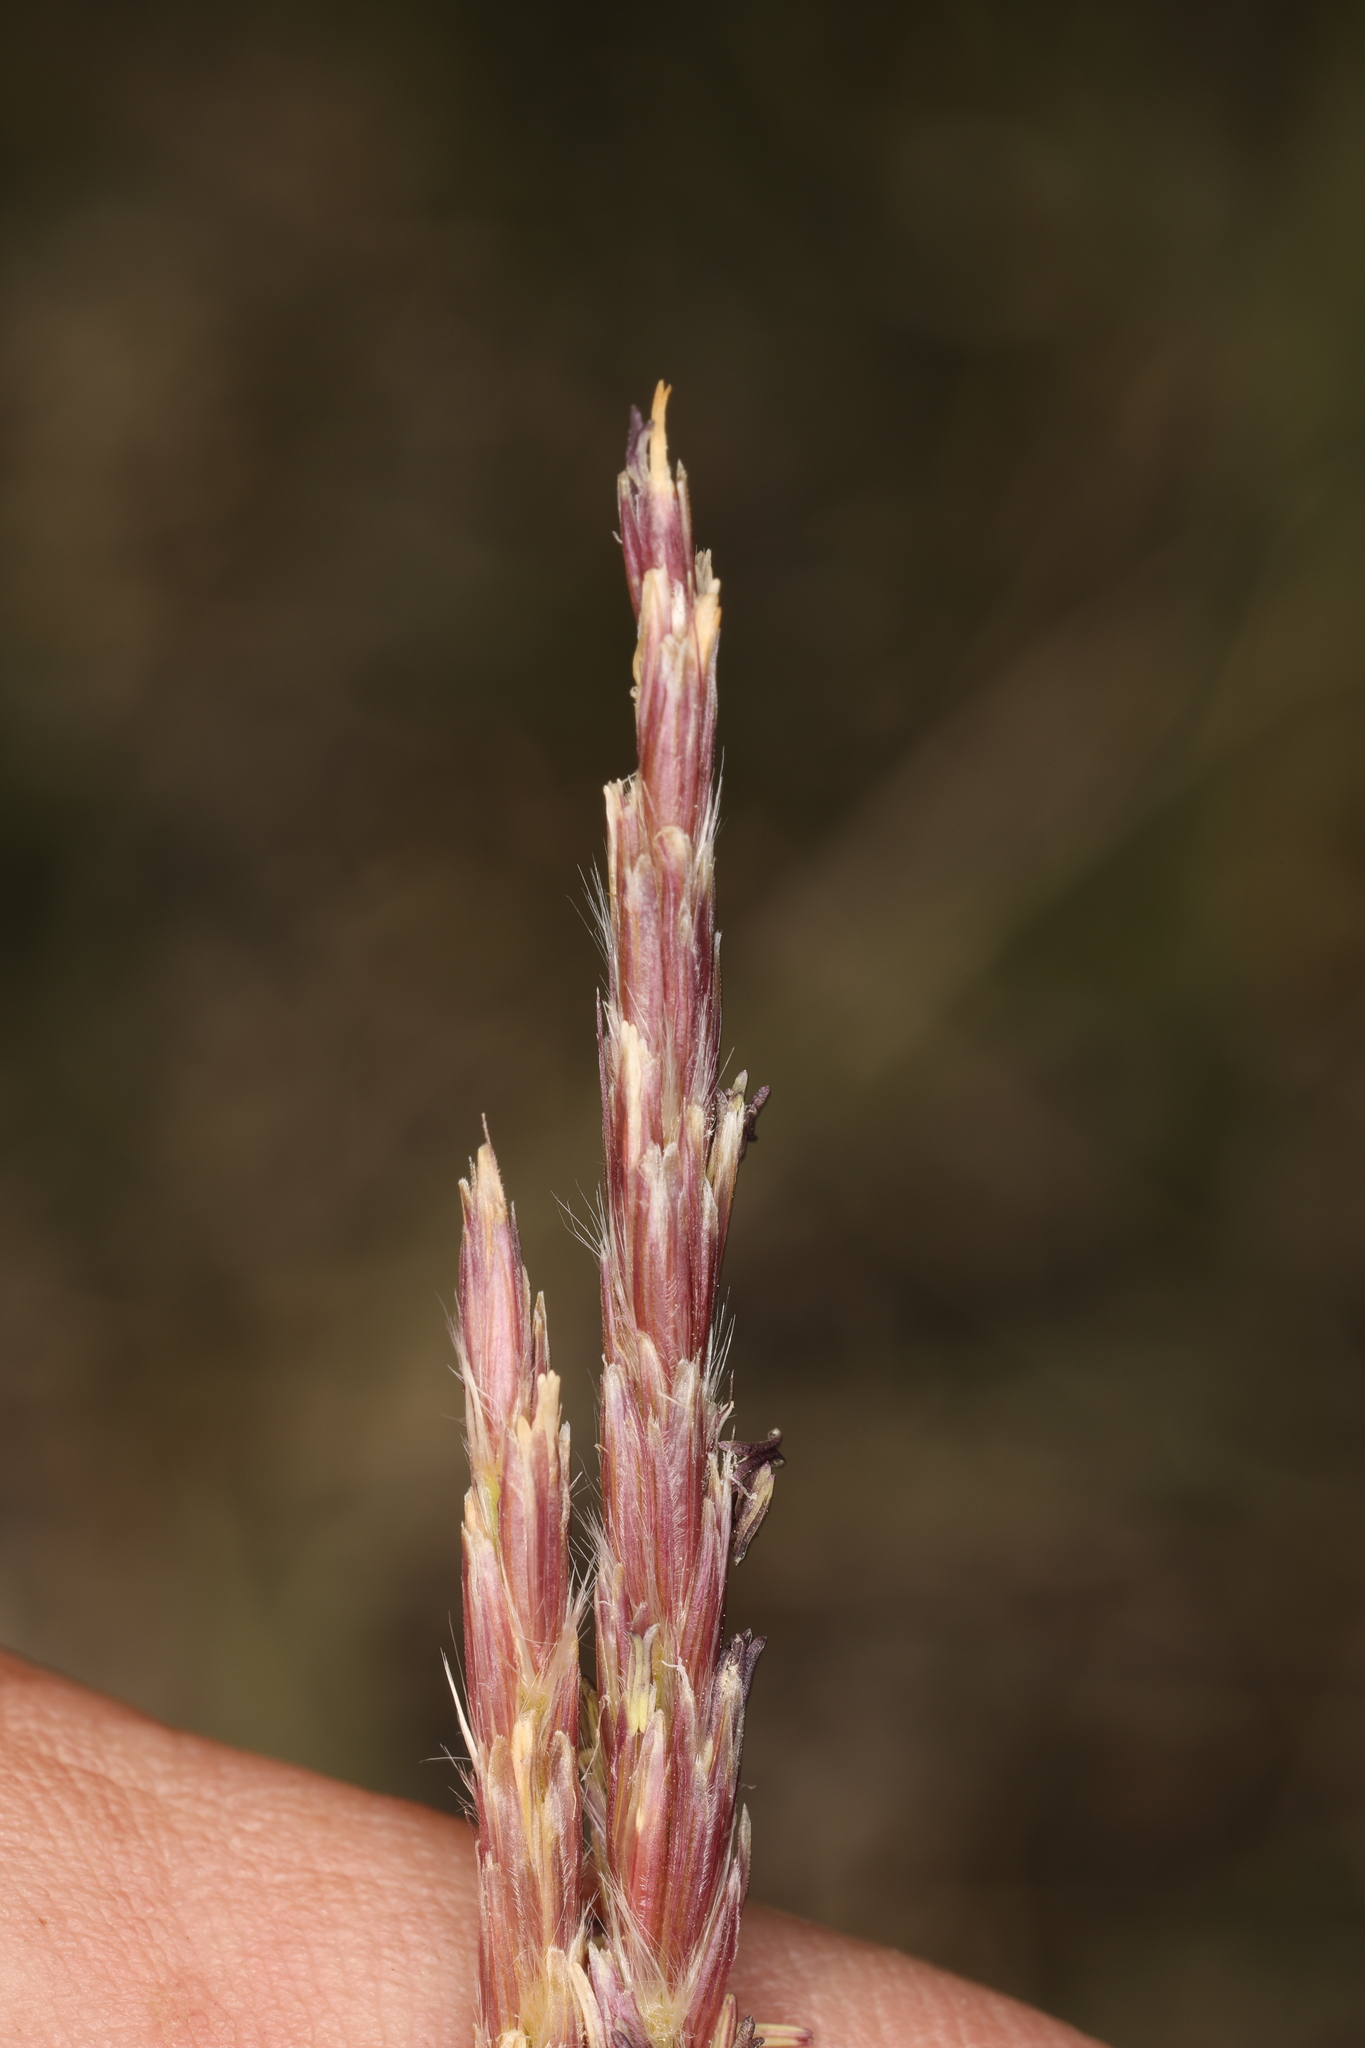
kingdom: Plantae
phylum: Tracheophyta
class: Liliopsida
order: Poales
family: Poaceae
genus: Hilaria
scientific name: Hilaria jamesii
